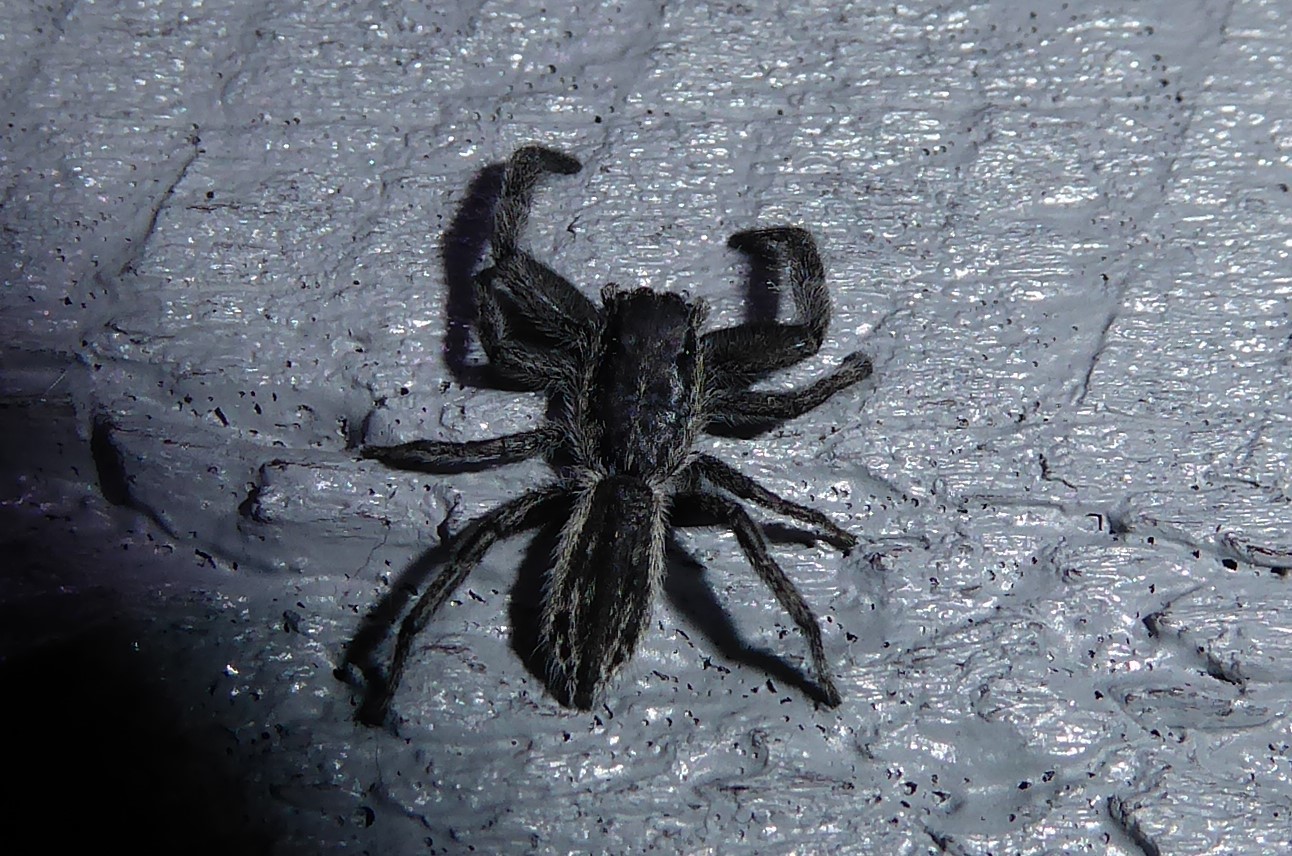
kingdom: Animalia
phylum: Arthropoda
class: Arachnida
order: Araneae
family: Salticidae
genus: Holoplatys
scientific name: Holoplatys apressus
